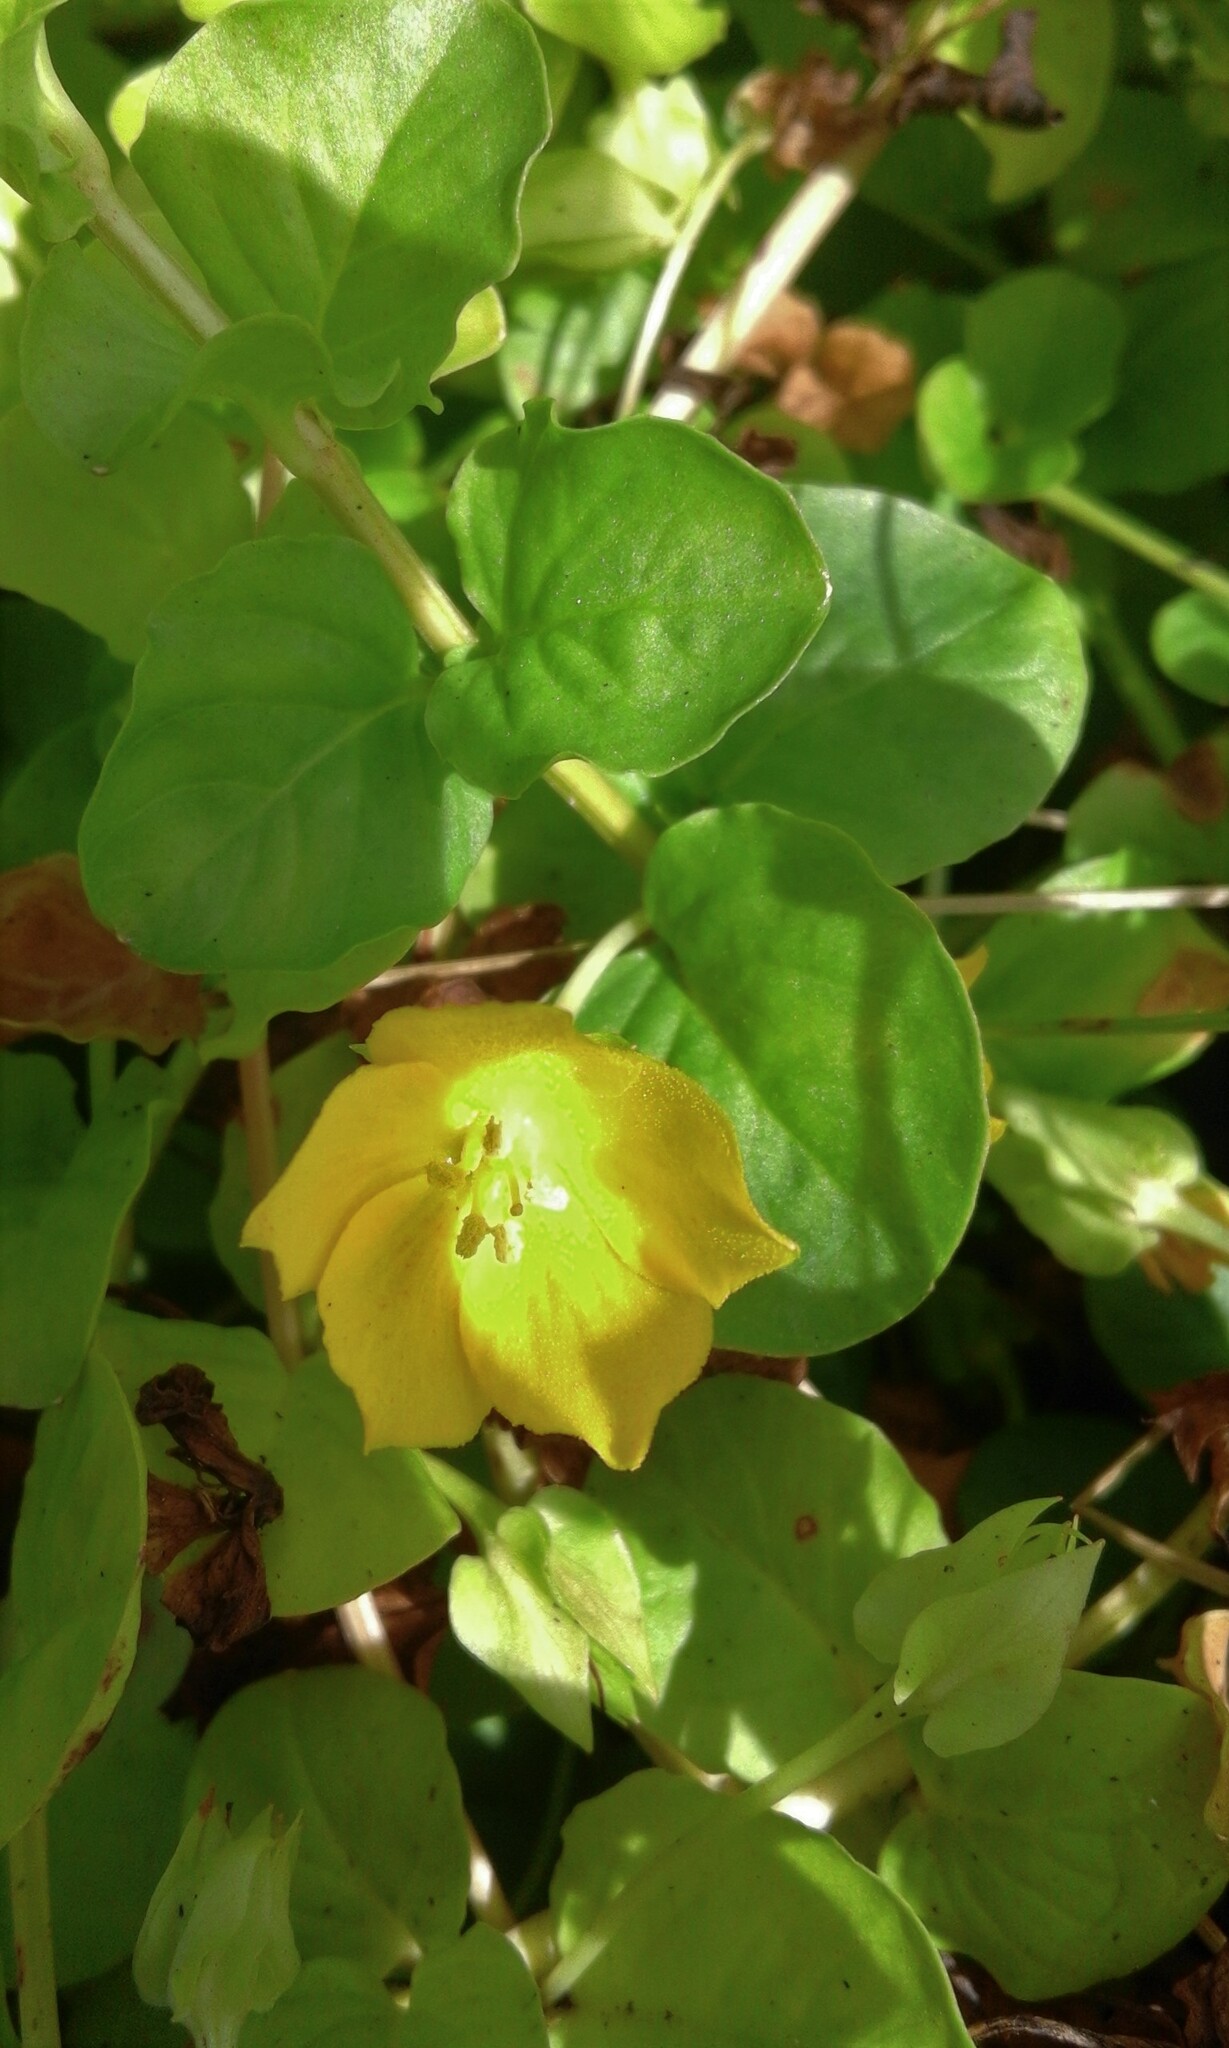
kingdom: Plantae
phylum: Tracheophyta
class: Magnoliopsida
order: Ericales
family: Primulaceae
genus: Lysimachia
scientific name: Lysimachia nummularia
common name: Moneywort
